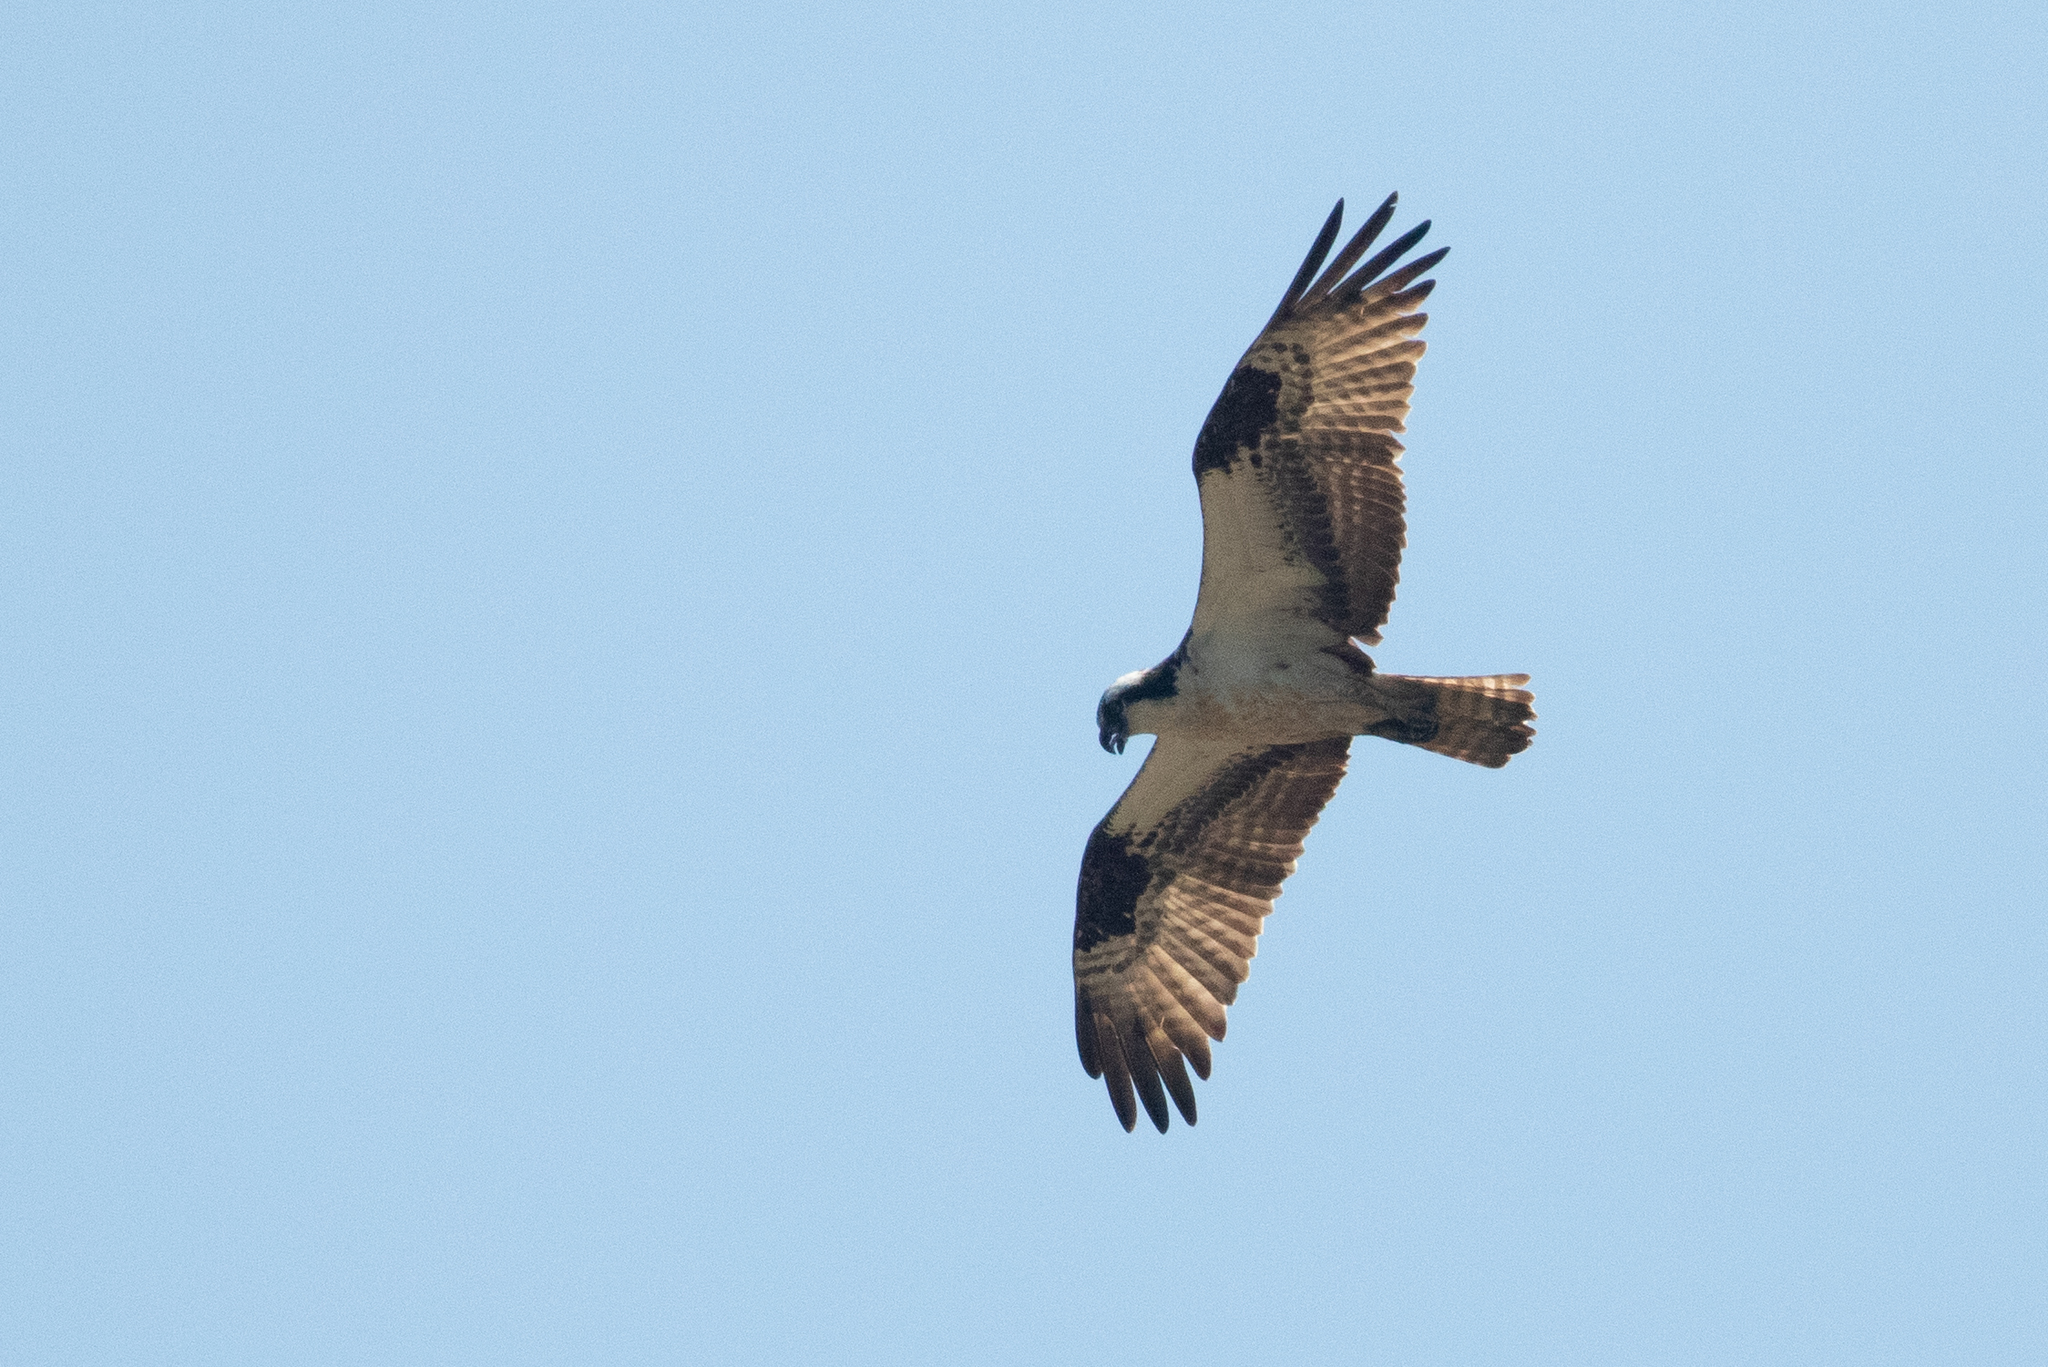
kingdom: Animalia
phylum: Chordata
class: Aves
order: Accipitriformes
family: Pandionidae
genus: Pandion
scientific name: Pandion haliaetus
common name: Osprey
